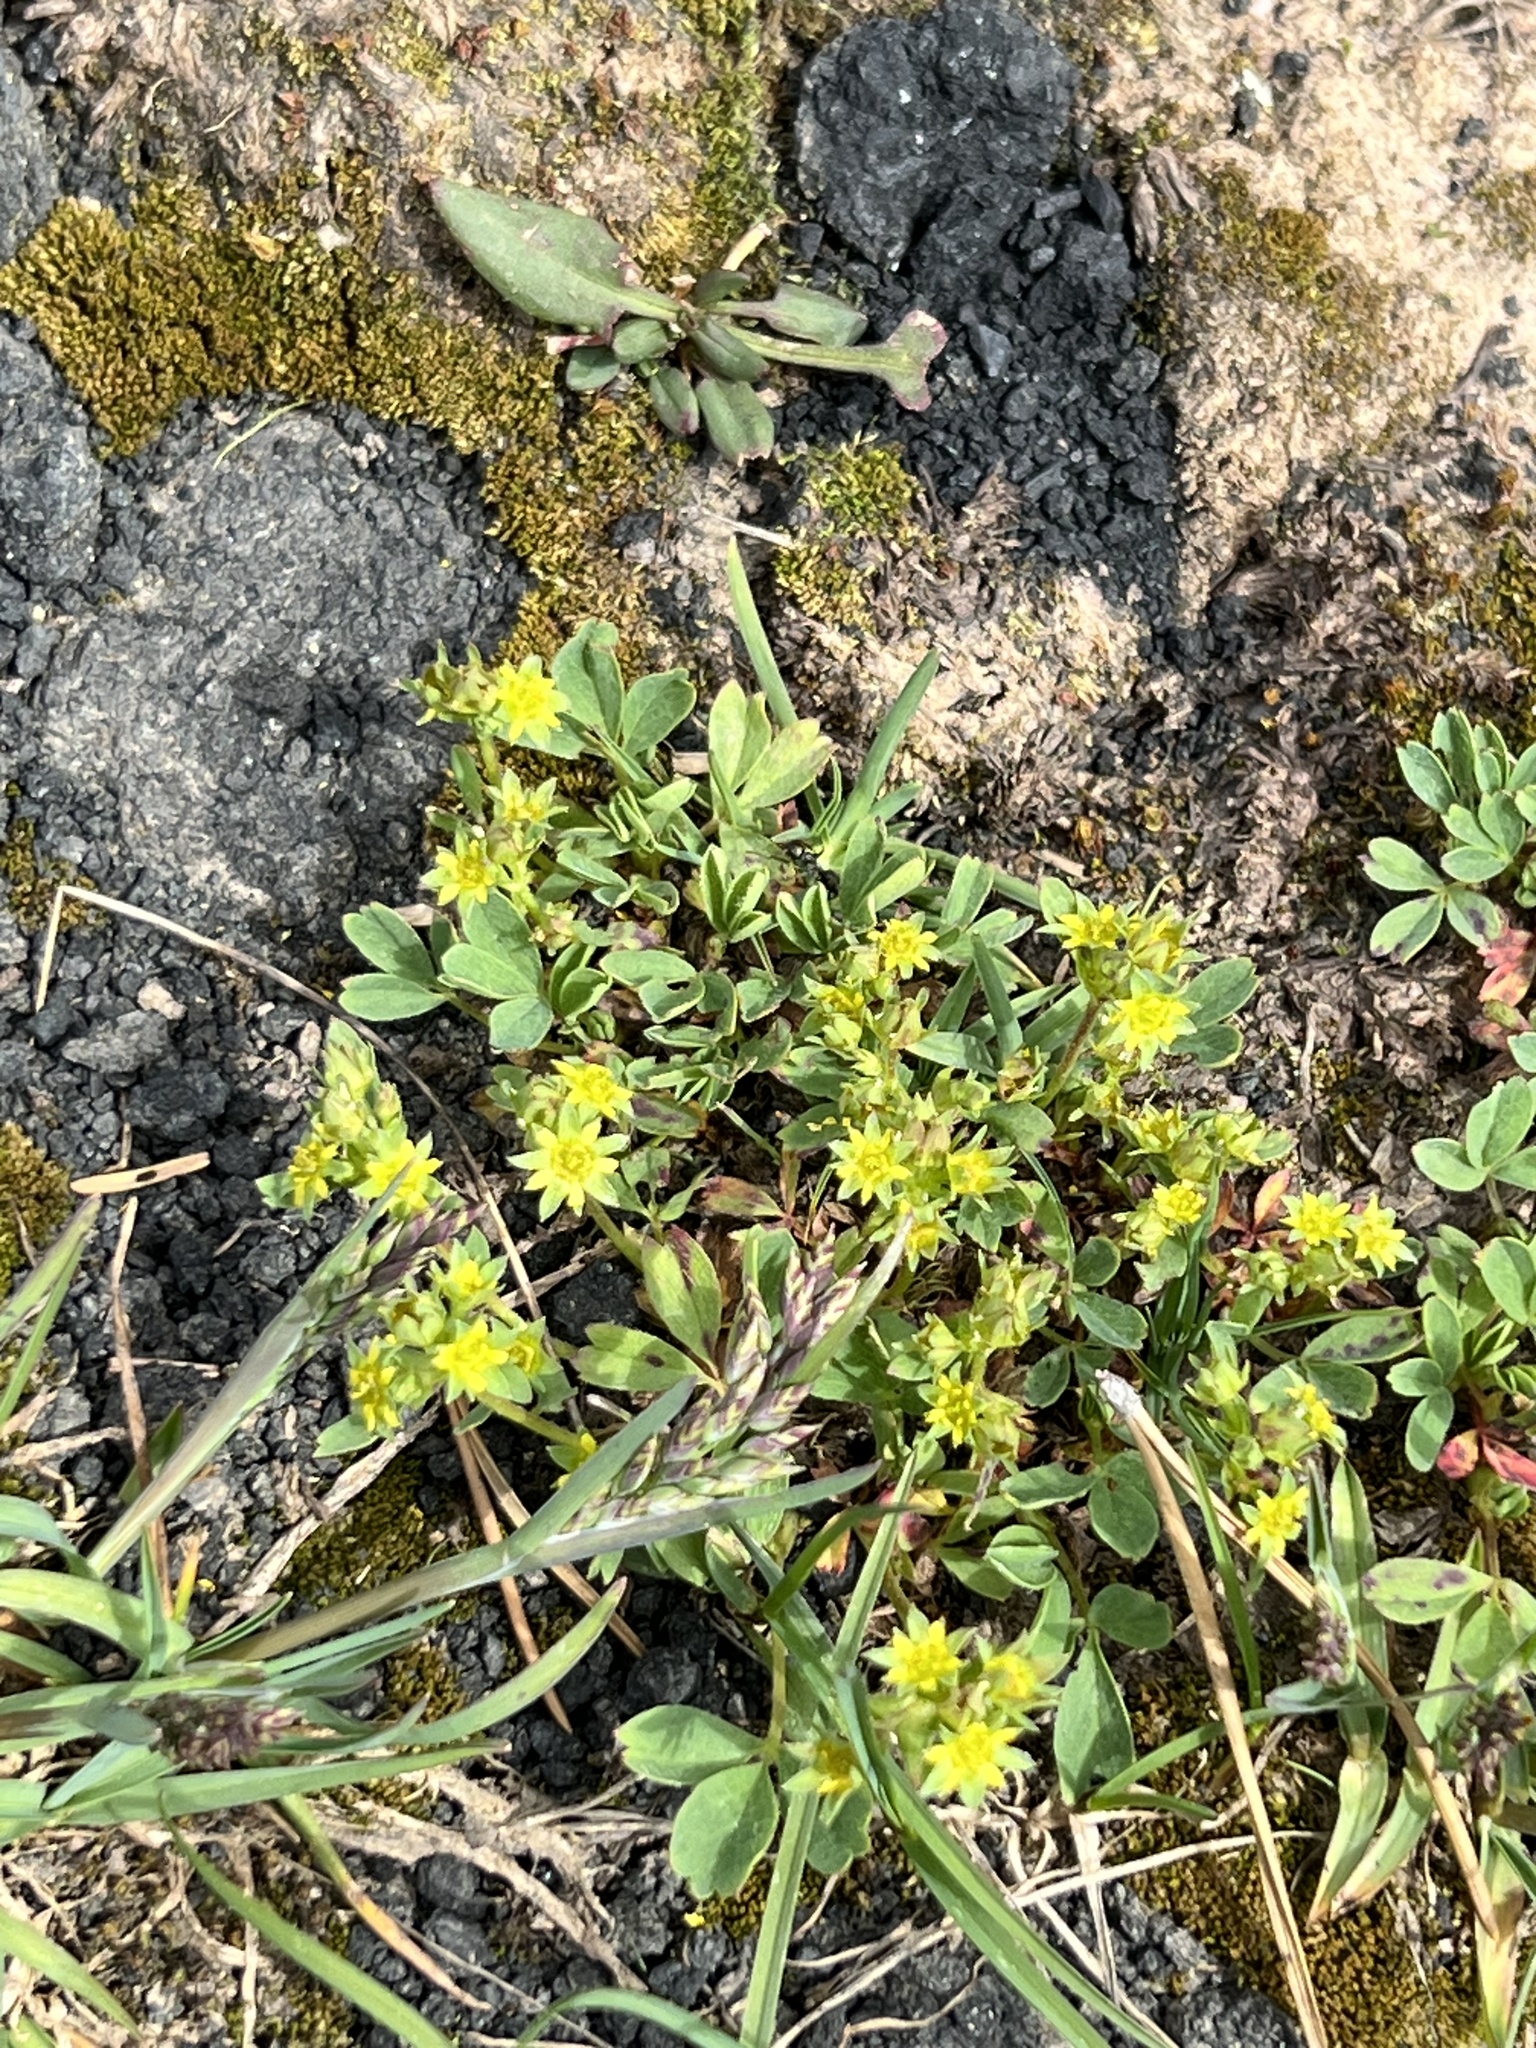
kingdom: Plantae
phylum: Tracheophyta
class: Magnoliopsida
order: Rosales
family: Rosaceae
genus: Sibbaldia
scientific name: Sibbaldia procumbens
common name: Creeping sibbaldia
